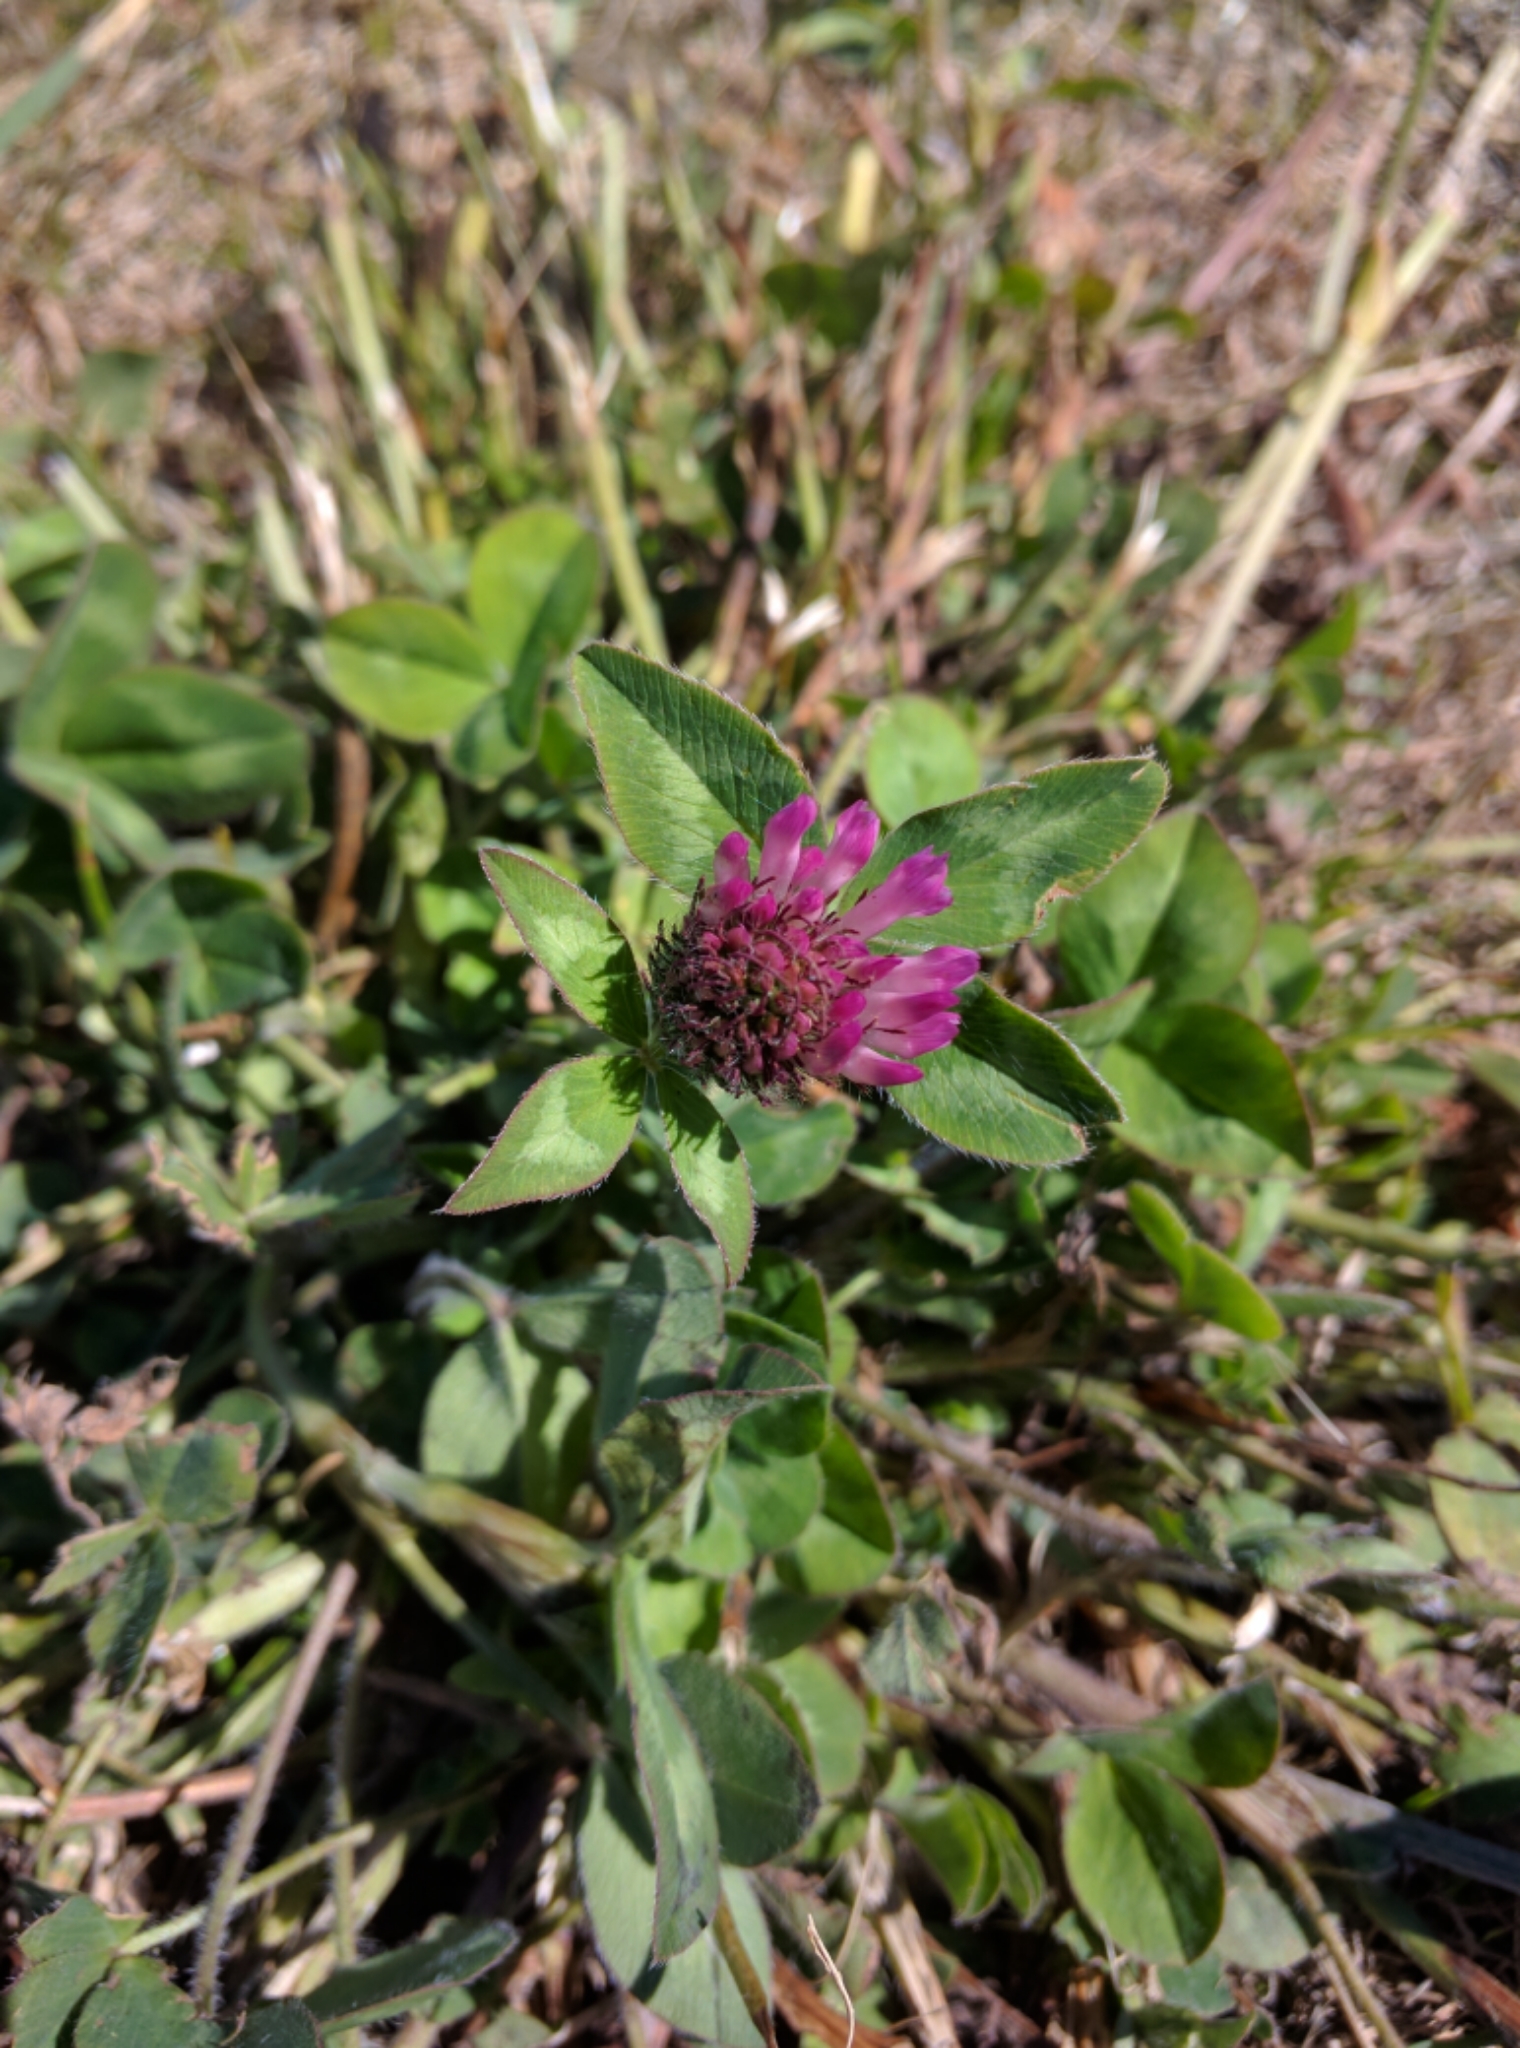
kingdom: Plantae
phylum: Tracheophyta
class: Magnoliopsida
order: Fabales
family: Fabaceae
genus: Trifolium
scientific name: Trifolium pratense
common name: Red clover
